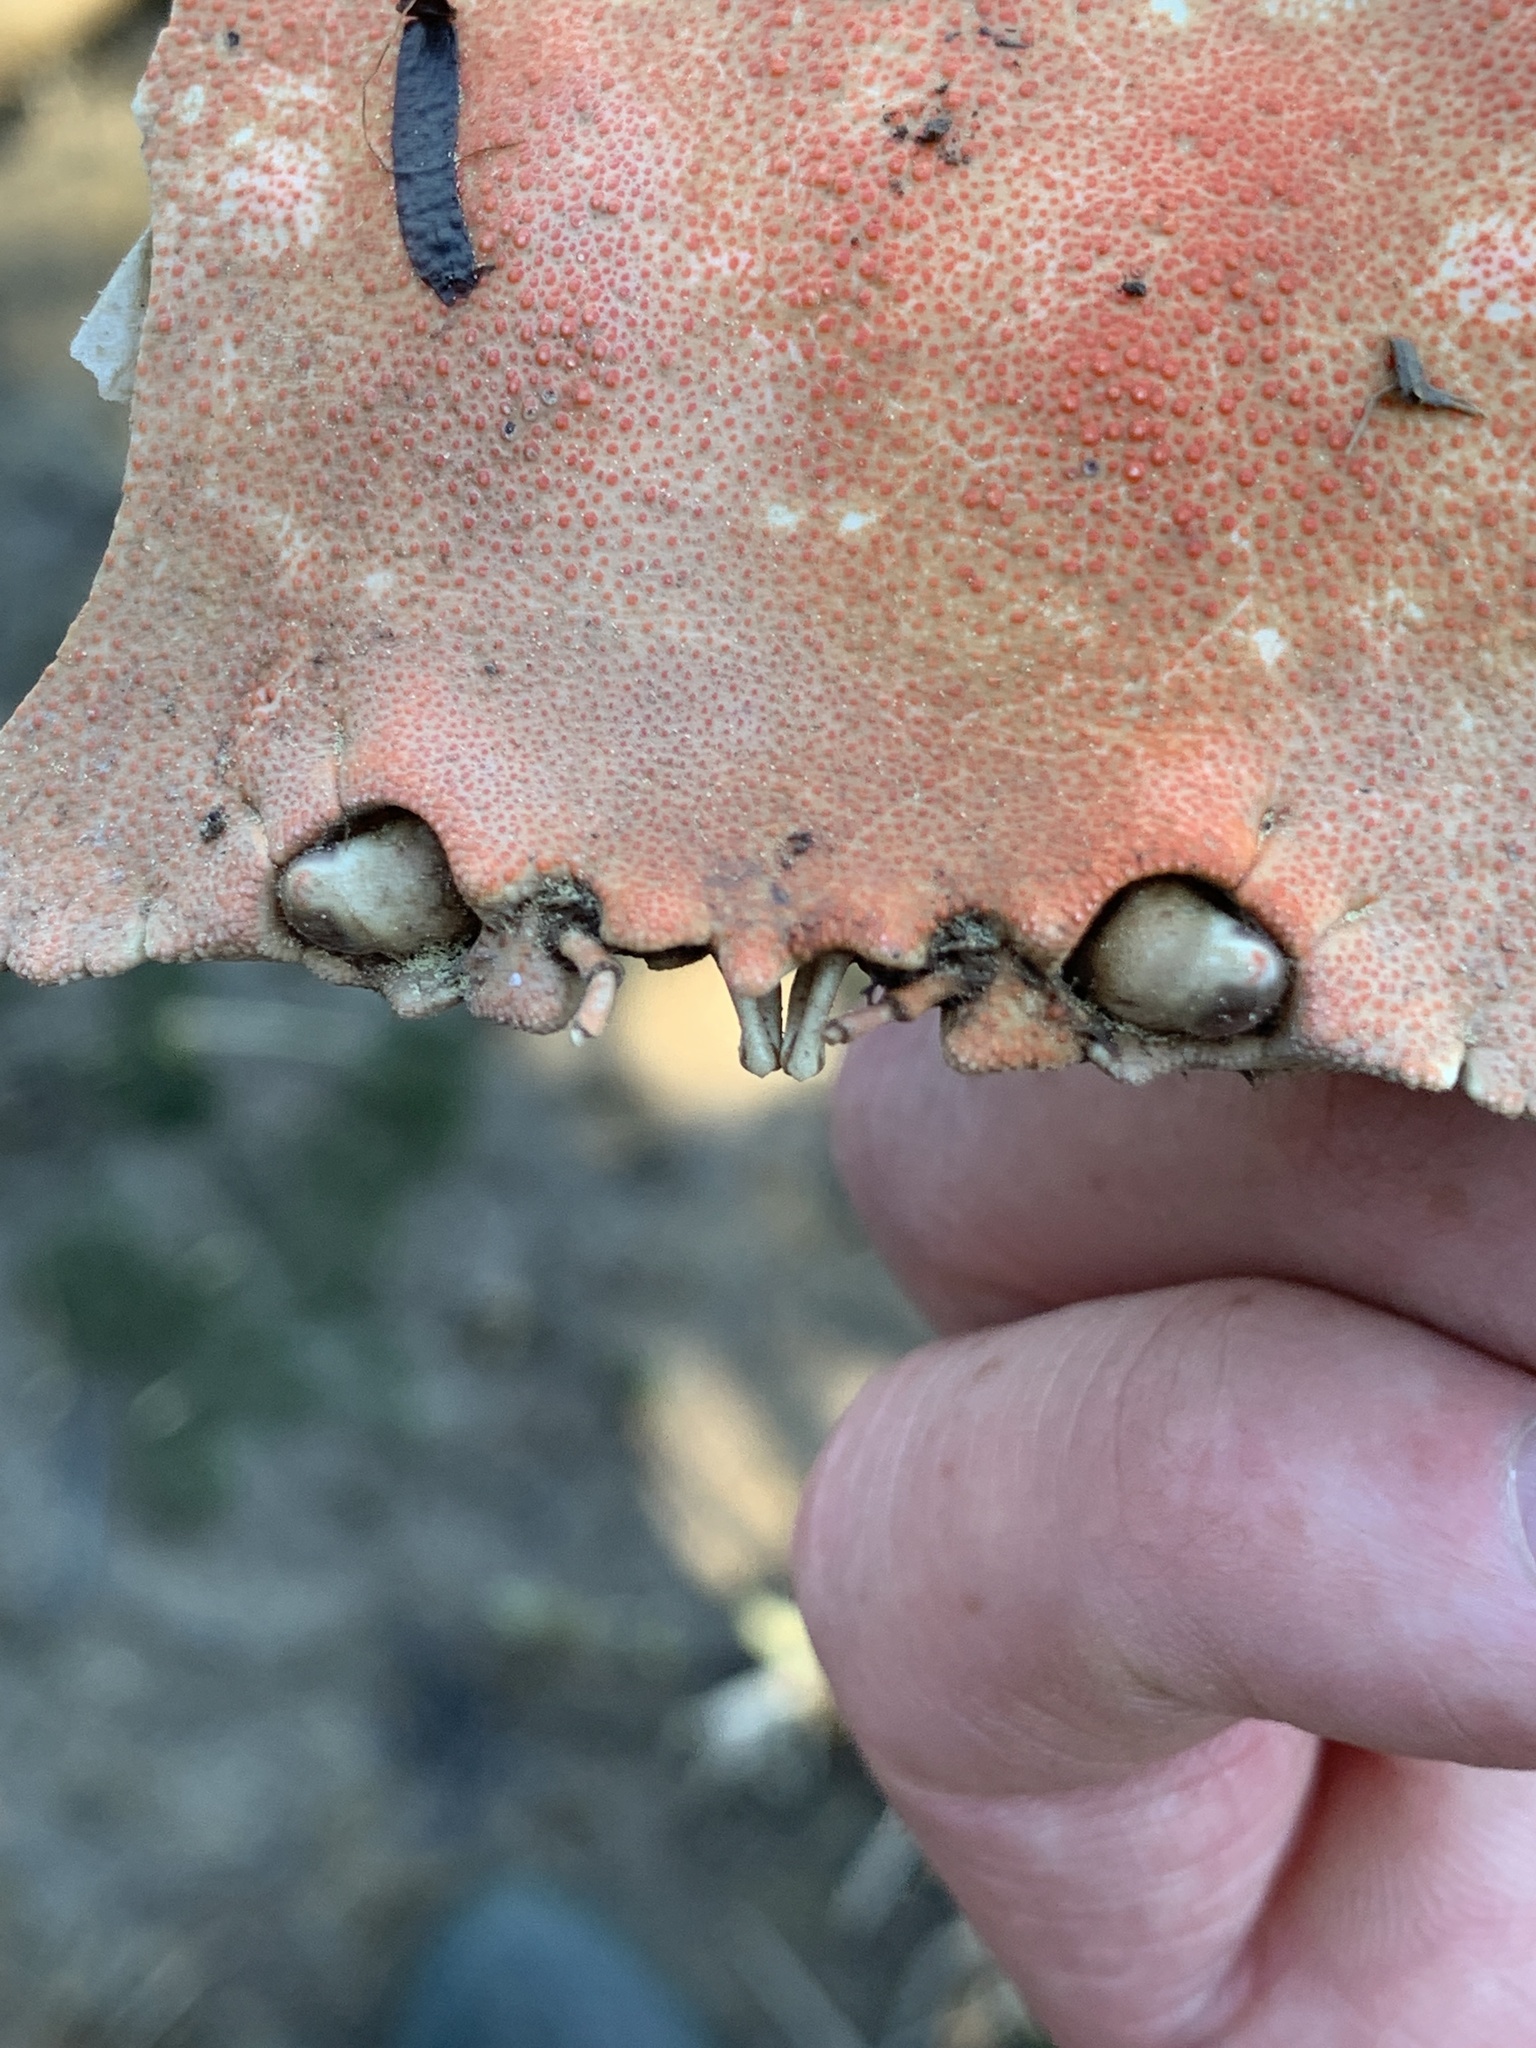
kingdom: Animalia
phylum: Arthropoda
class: Malacostraca
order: Decapoda
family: Cancridae
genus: Cancer
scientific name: Cancer borealis
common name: Jonah crab
